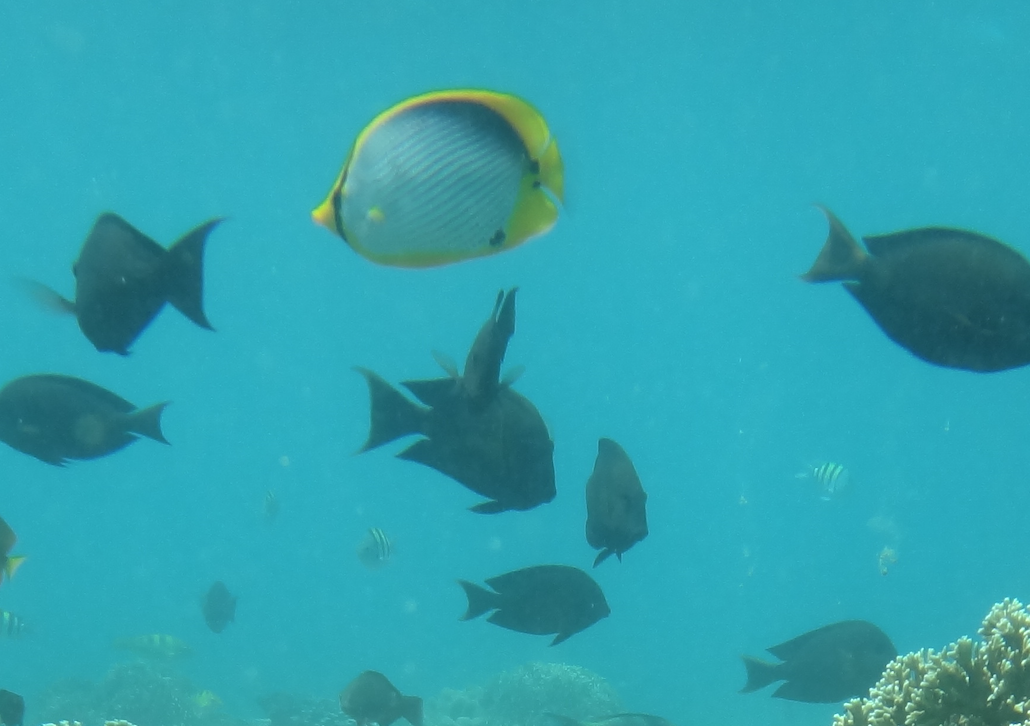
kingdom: Animalia
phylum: Chordata
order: Perciformes
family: Chaetodontidae
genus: Chaetodon
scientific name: Chaetodon melannotus
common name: Blackback butterflyfish
